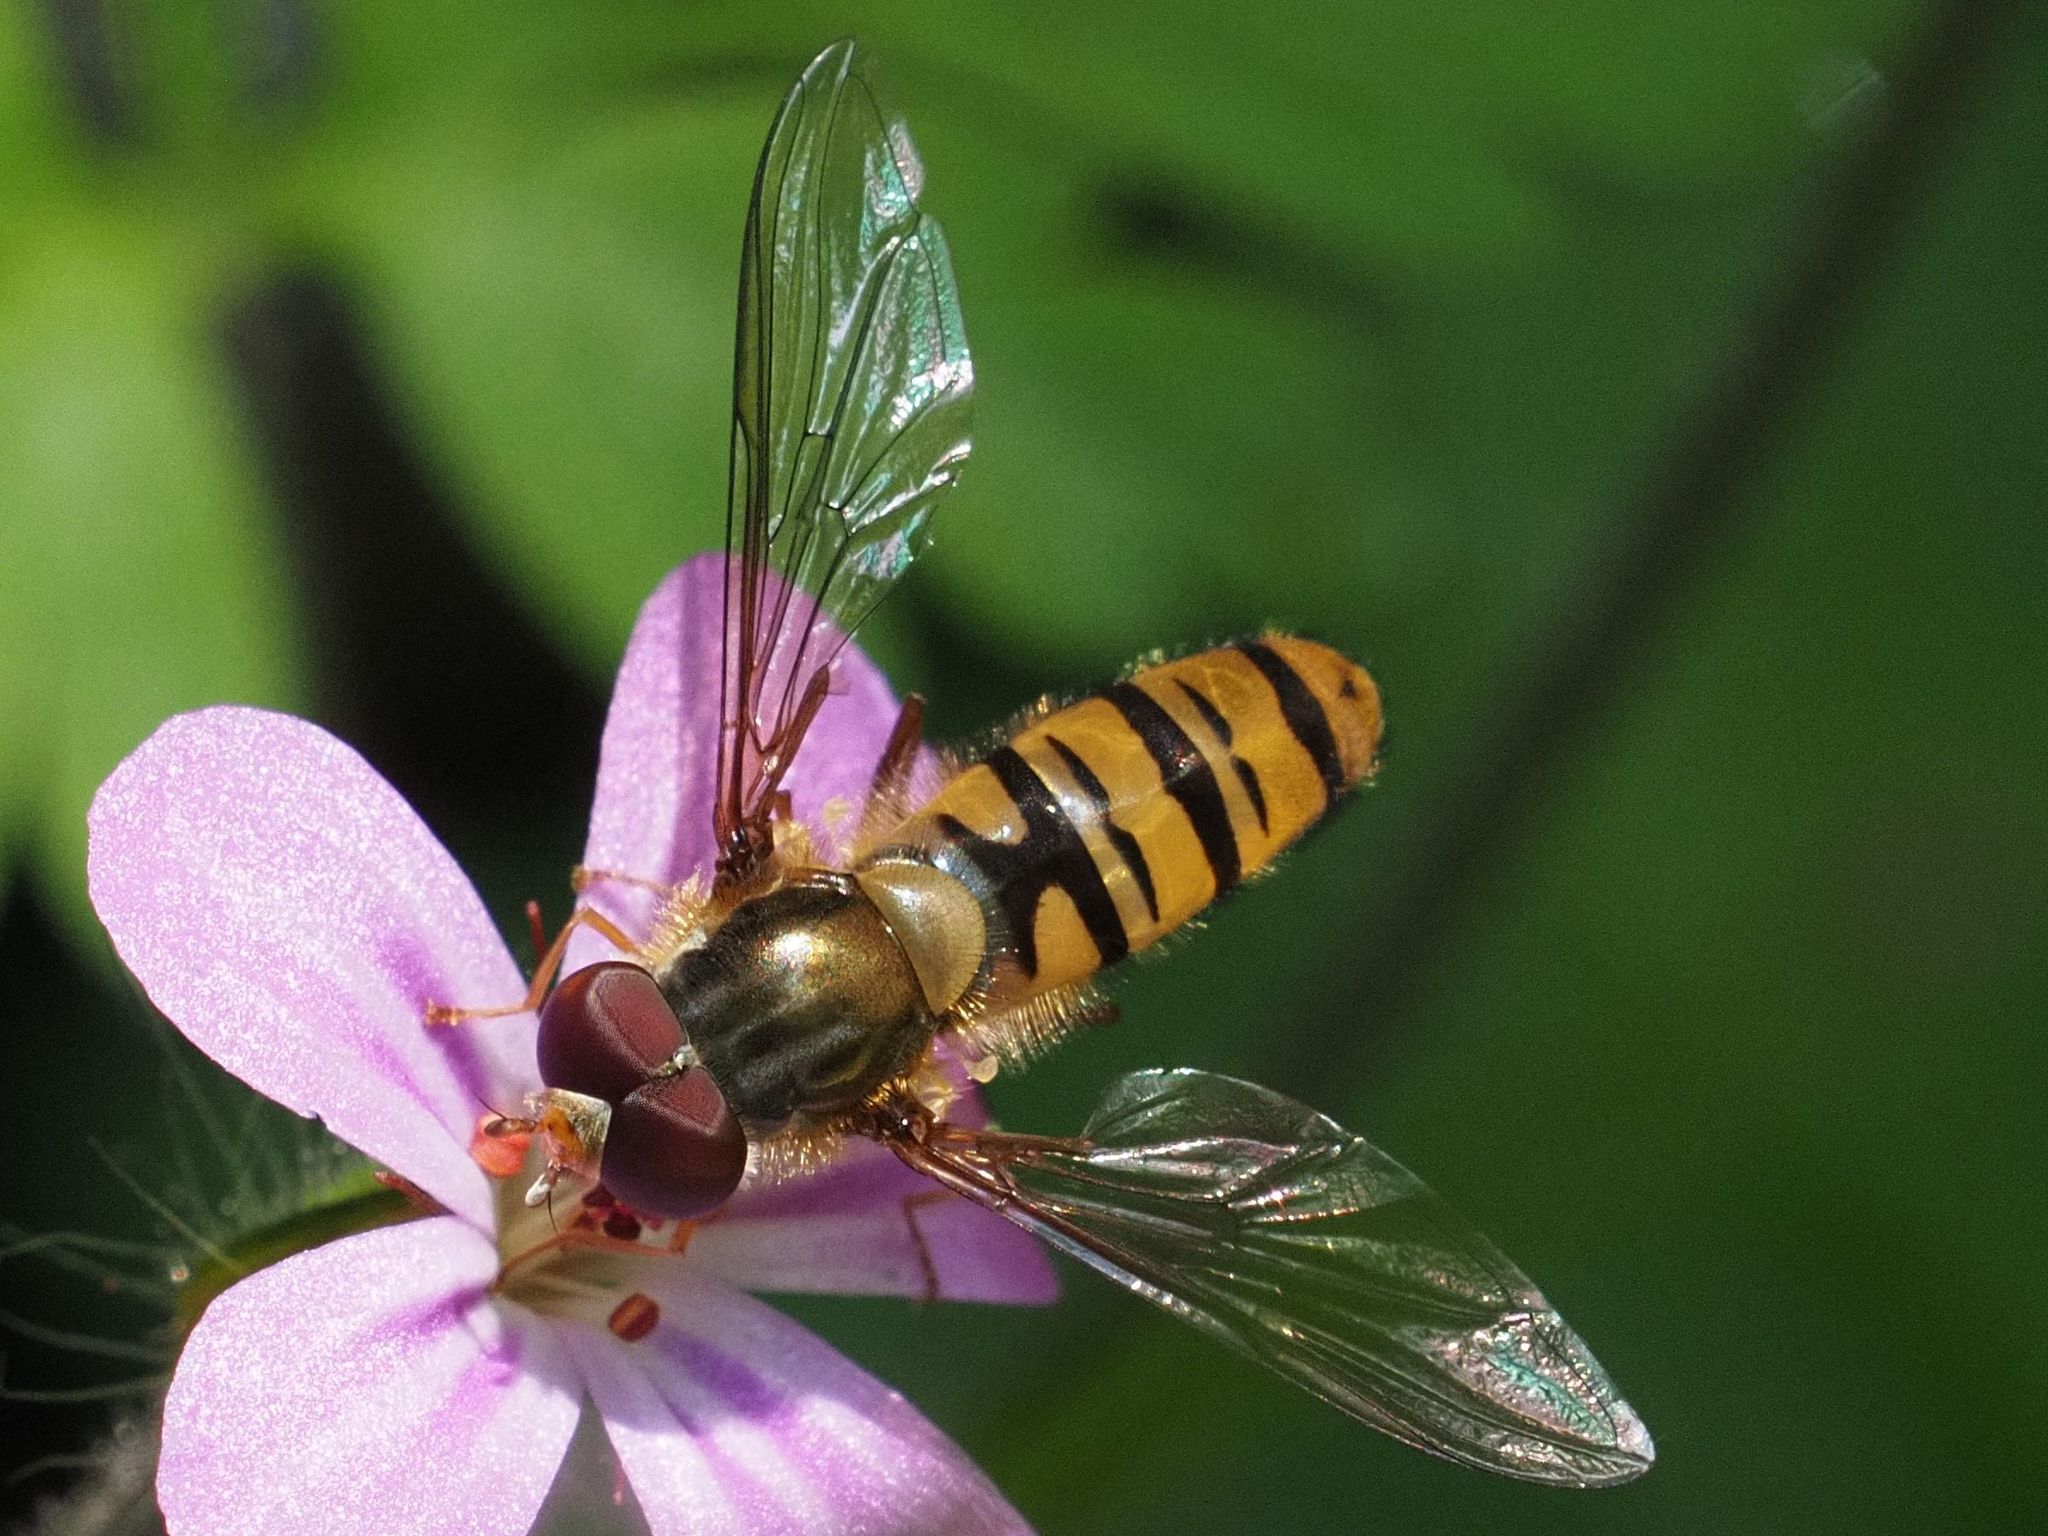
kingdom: Animalia
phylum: Arthropoda
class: Insecta
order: Diptera
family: Syrphidae
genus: Episyrphus
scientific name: Episyrphus balteatus
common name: Marmalade hoverfly
